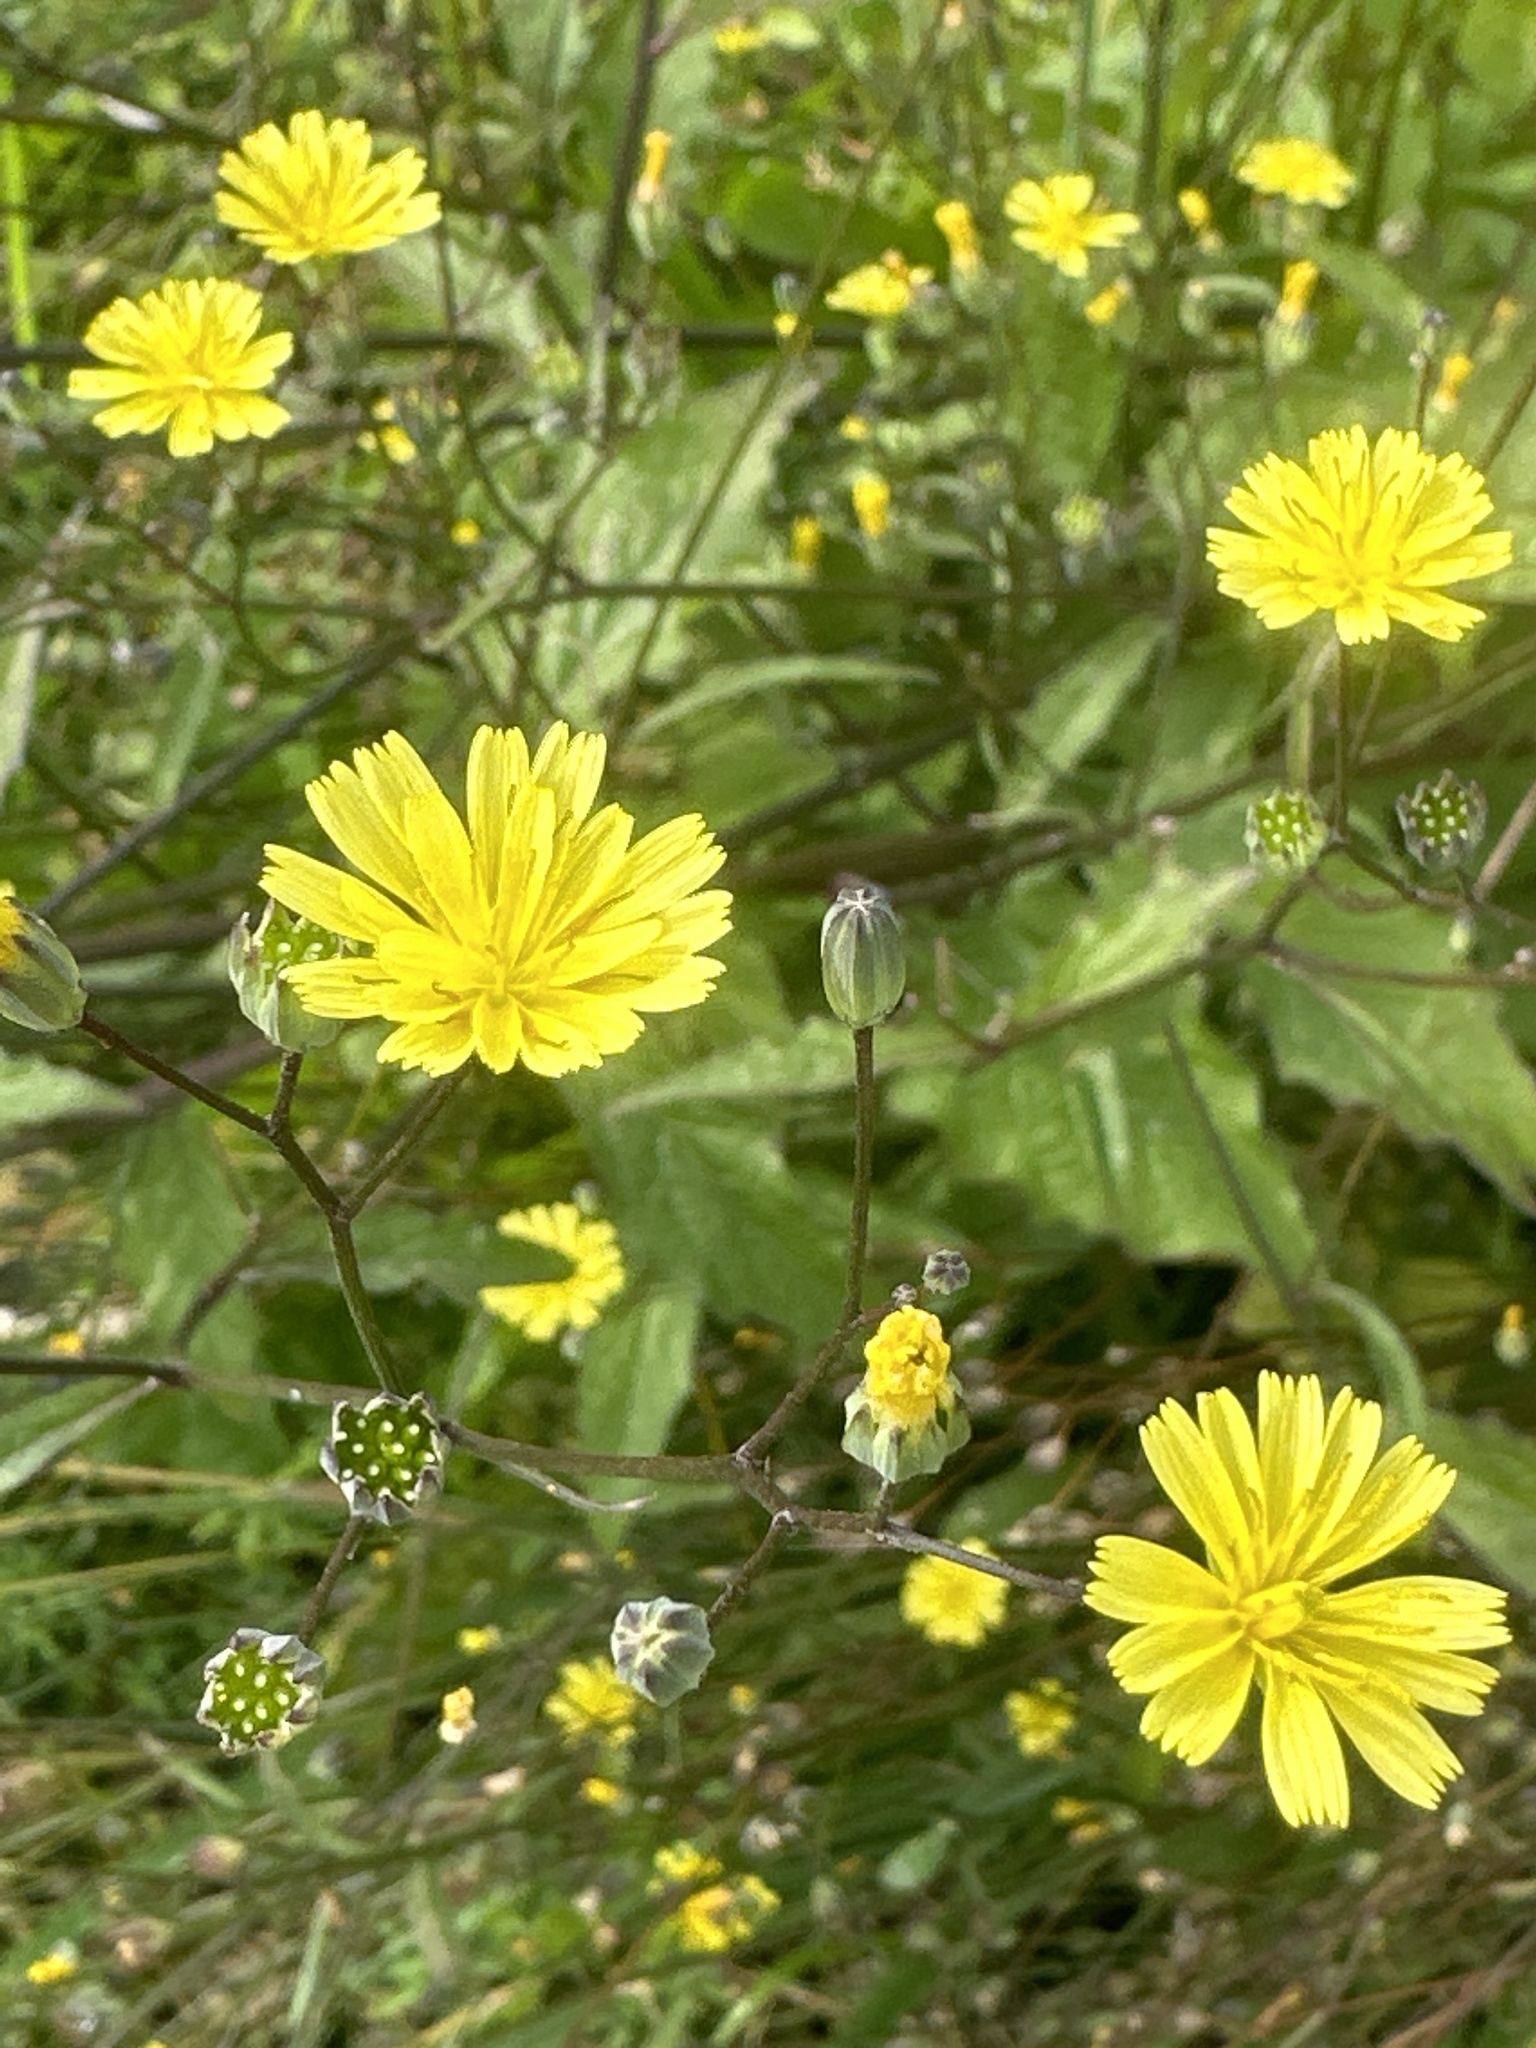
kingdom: Plantae
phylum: Tracheophyta
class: Magnoliopsida
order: Asterales
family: Asteraceae
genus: Lapsana
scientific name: Lapsana communis
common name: Nipplewort
